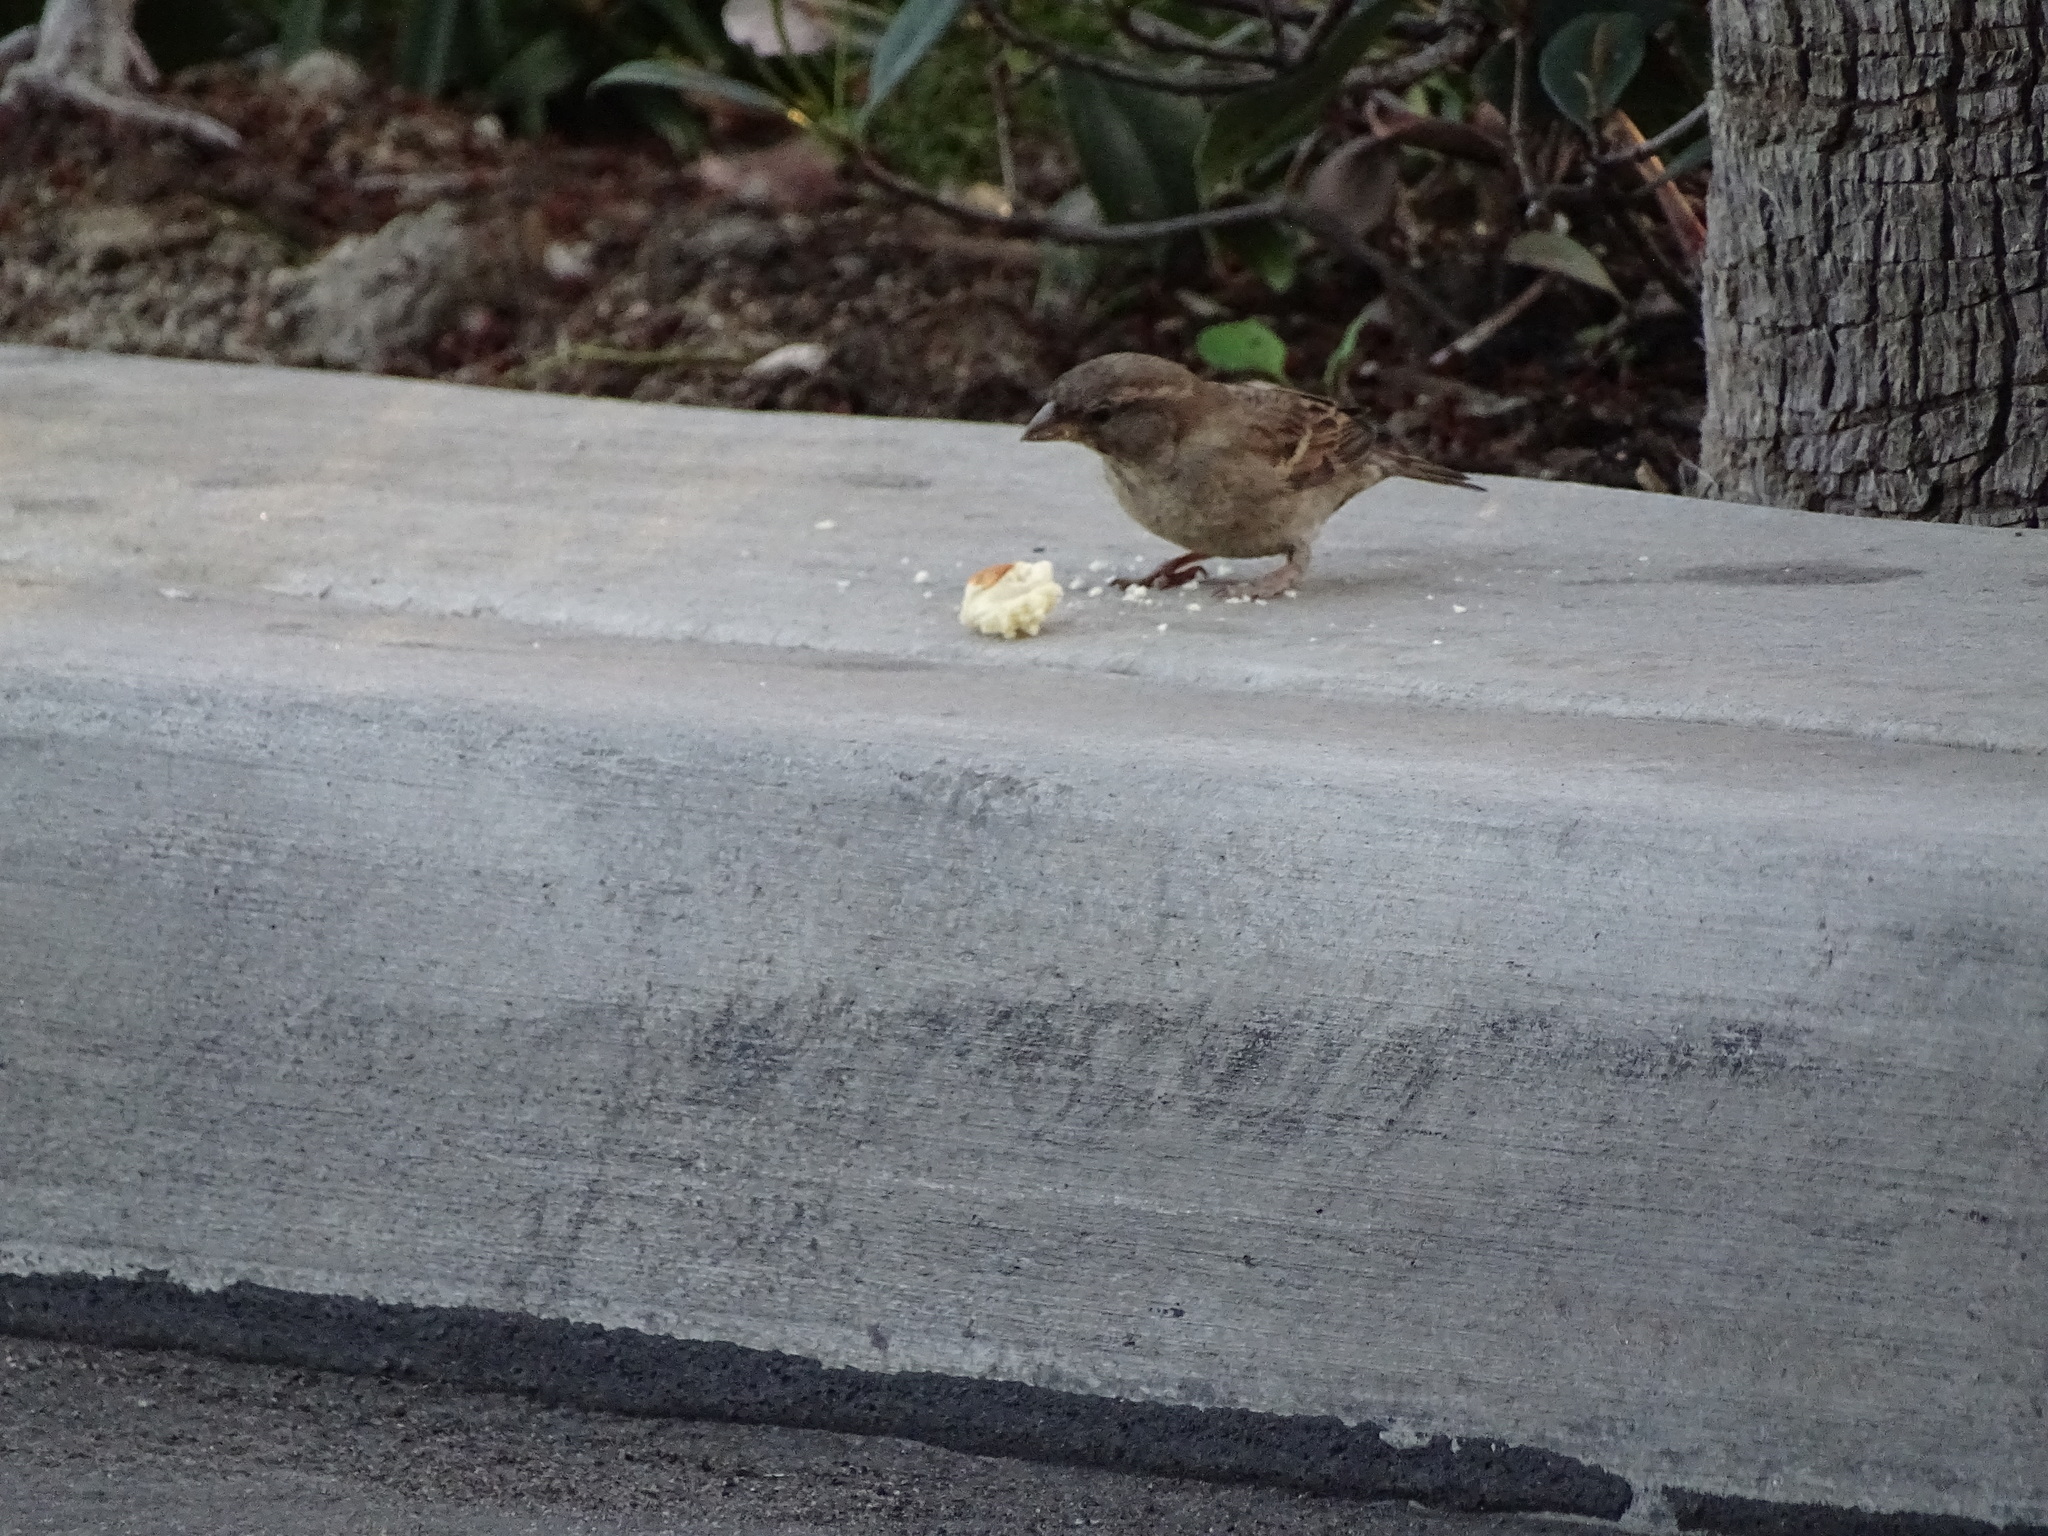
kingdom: Animalia
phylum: Chordata
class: Aves
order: Passeriformes
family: Passeridae
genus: Passer
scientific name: Passer domesticus
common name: House sparrow
